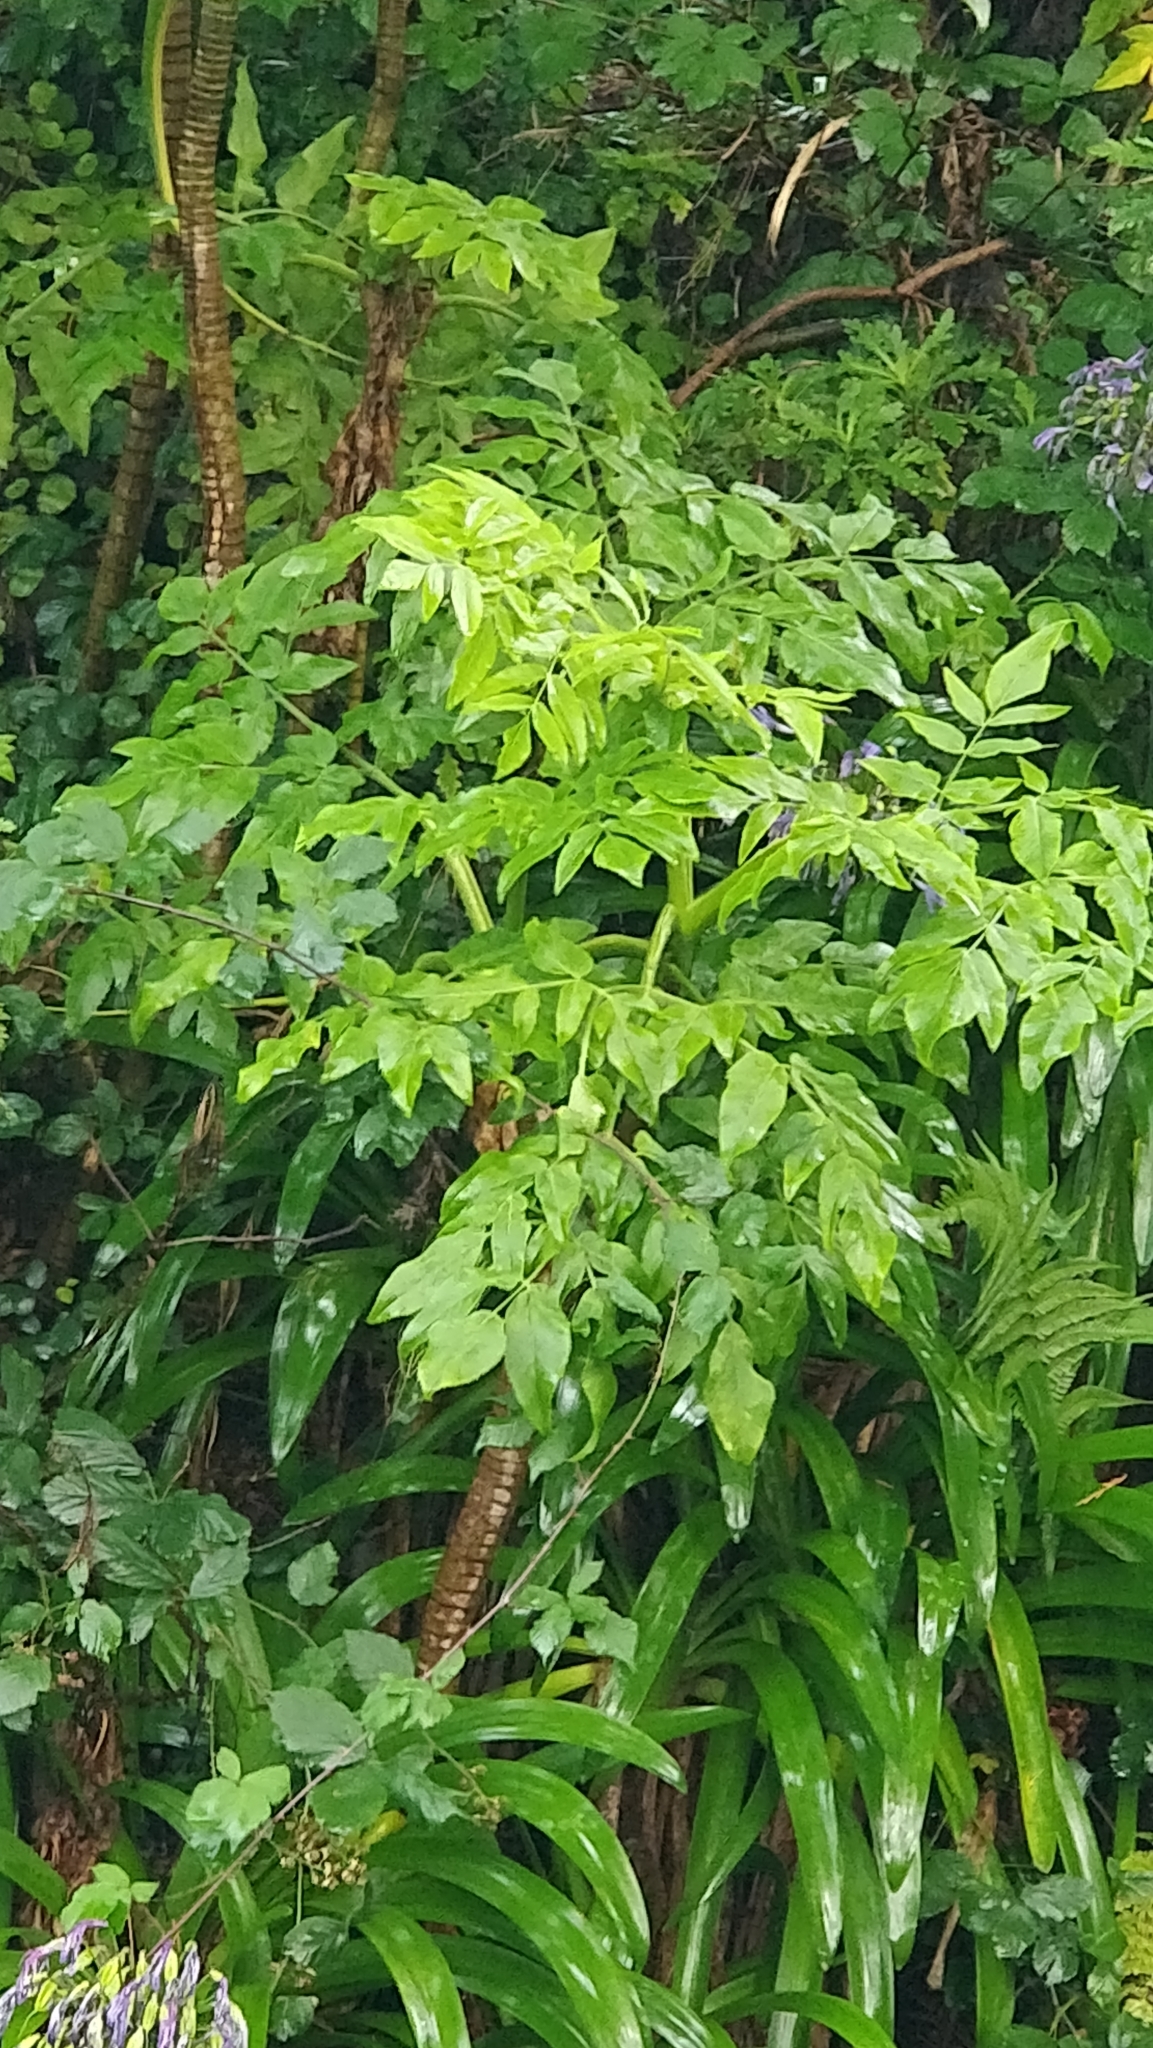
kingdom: Plantae
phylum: Tracheophyta
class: Magnoliopsida
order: Apiales
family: Apiaceae
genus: Daucus
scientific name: Daucus decipiens
